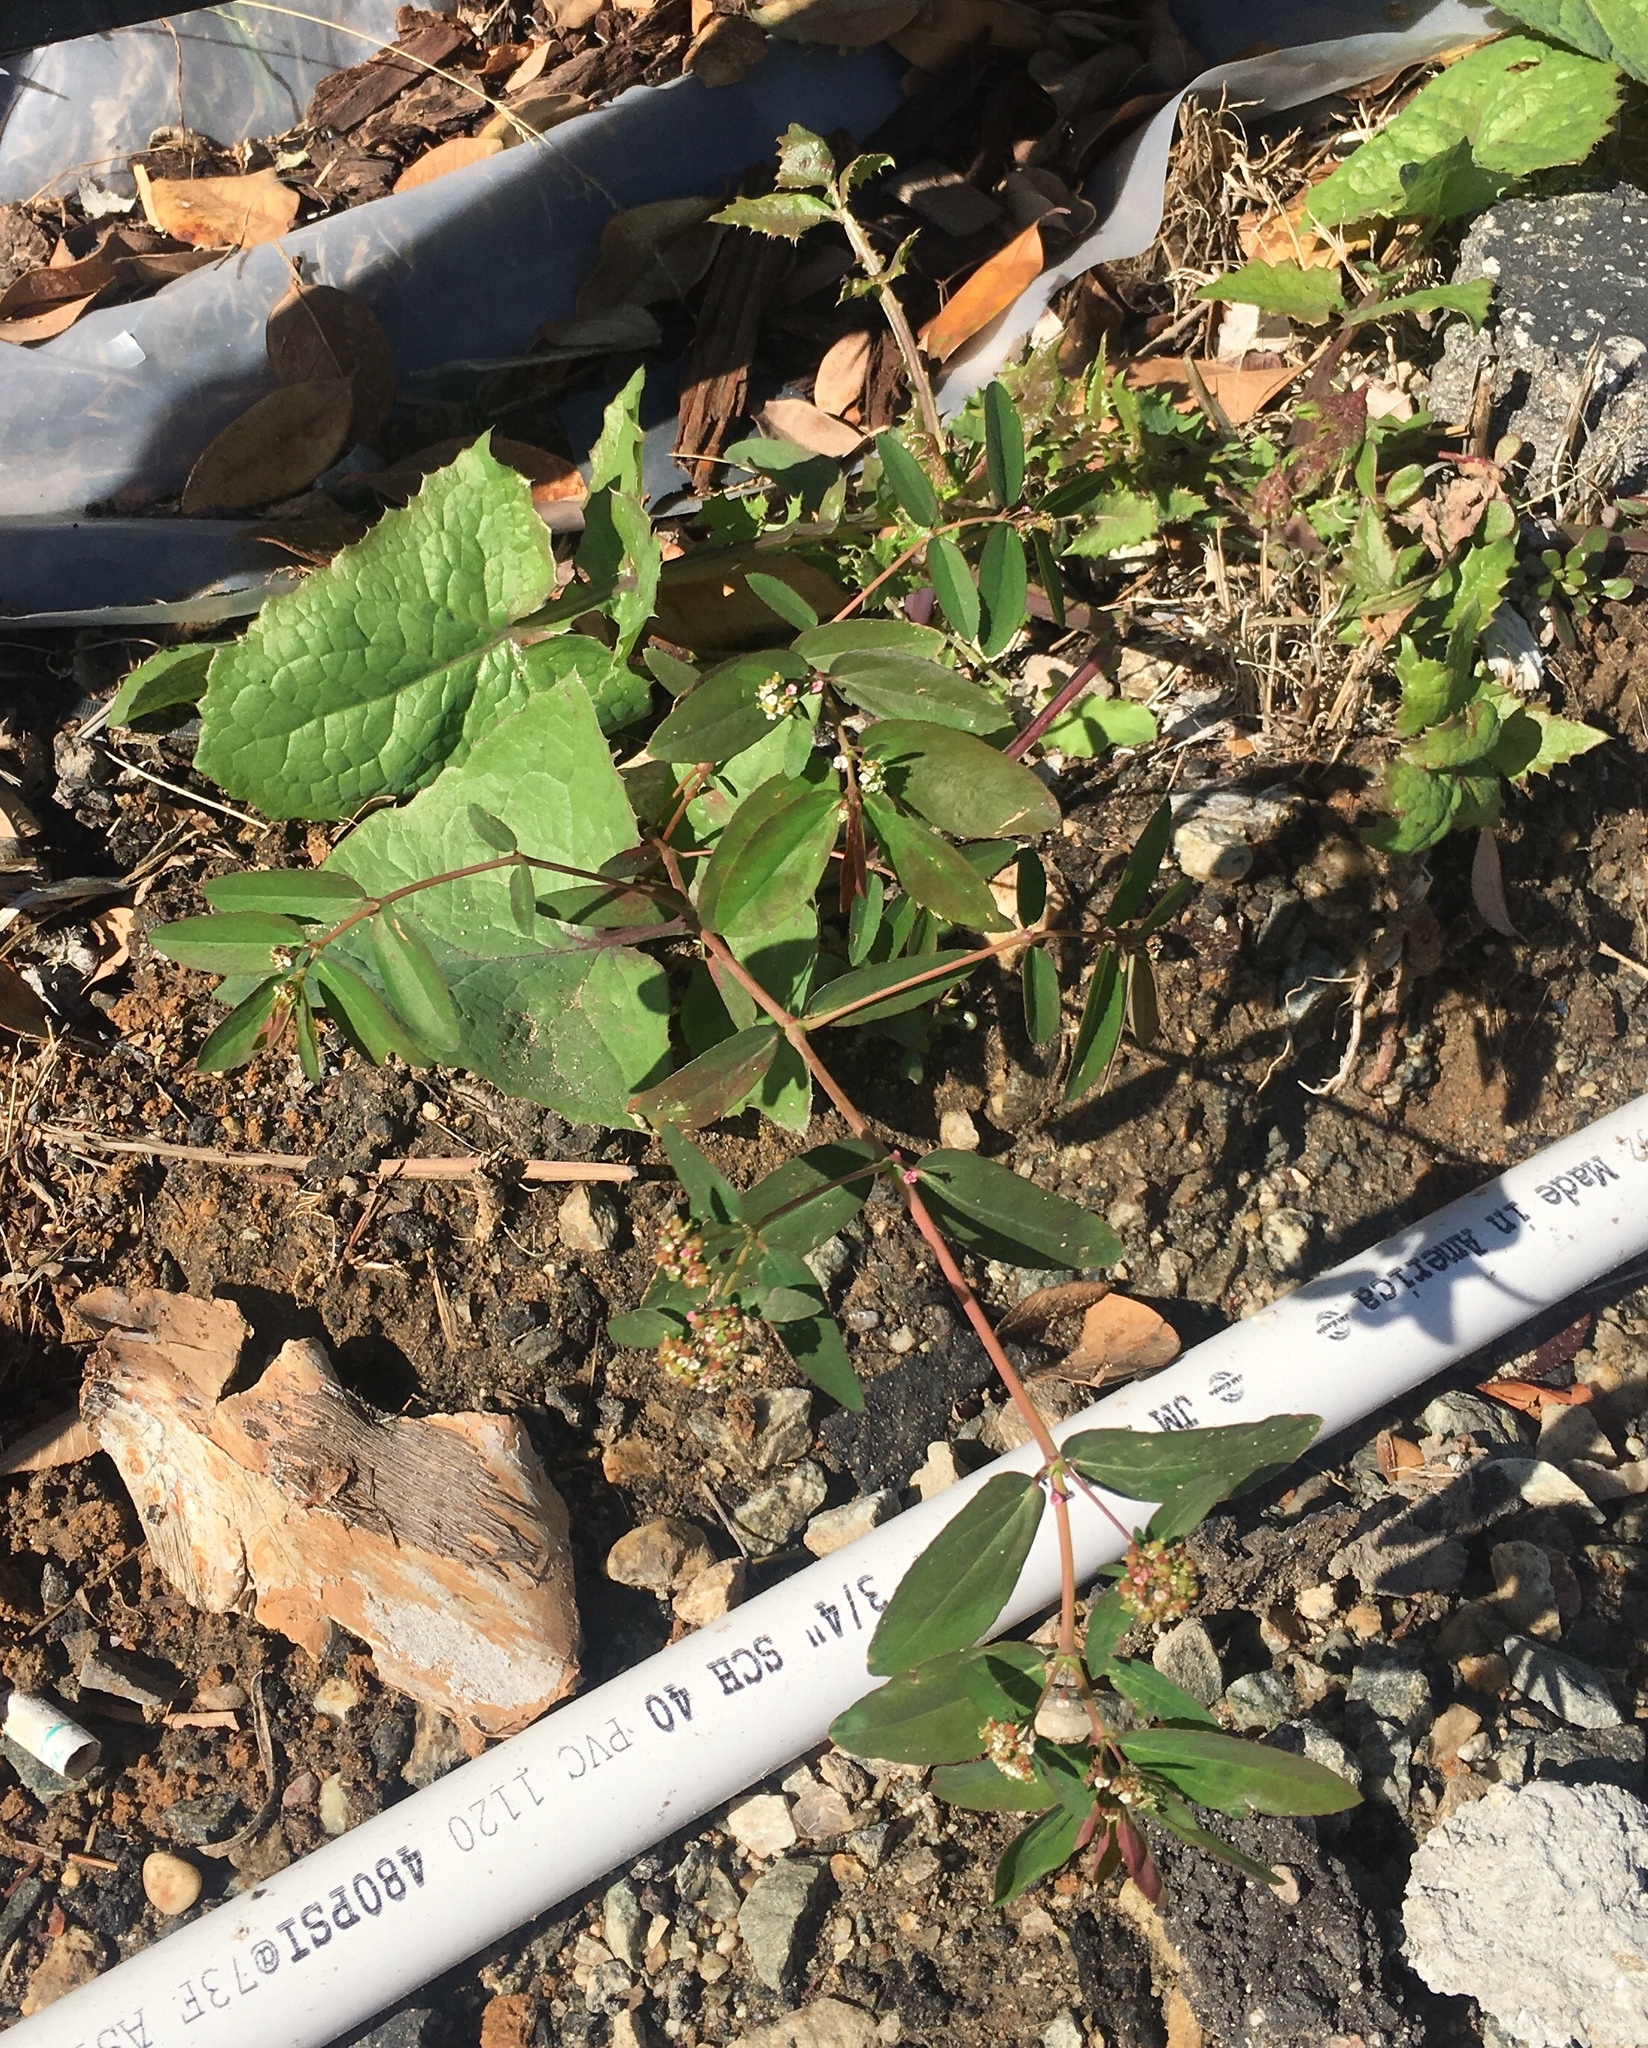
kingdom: Plantae
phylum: Tracheophyta
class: Magnoliopsida
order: Malpighiales
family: Euphorbiaceae
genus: Euphorbia
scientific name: Euphorbia hypericifolia
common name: Graceful sandmat
